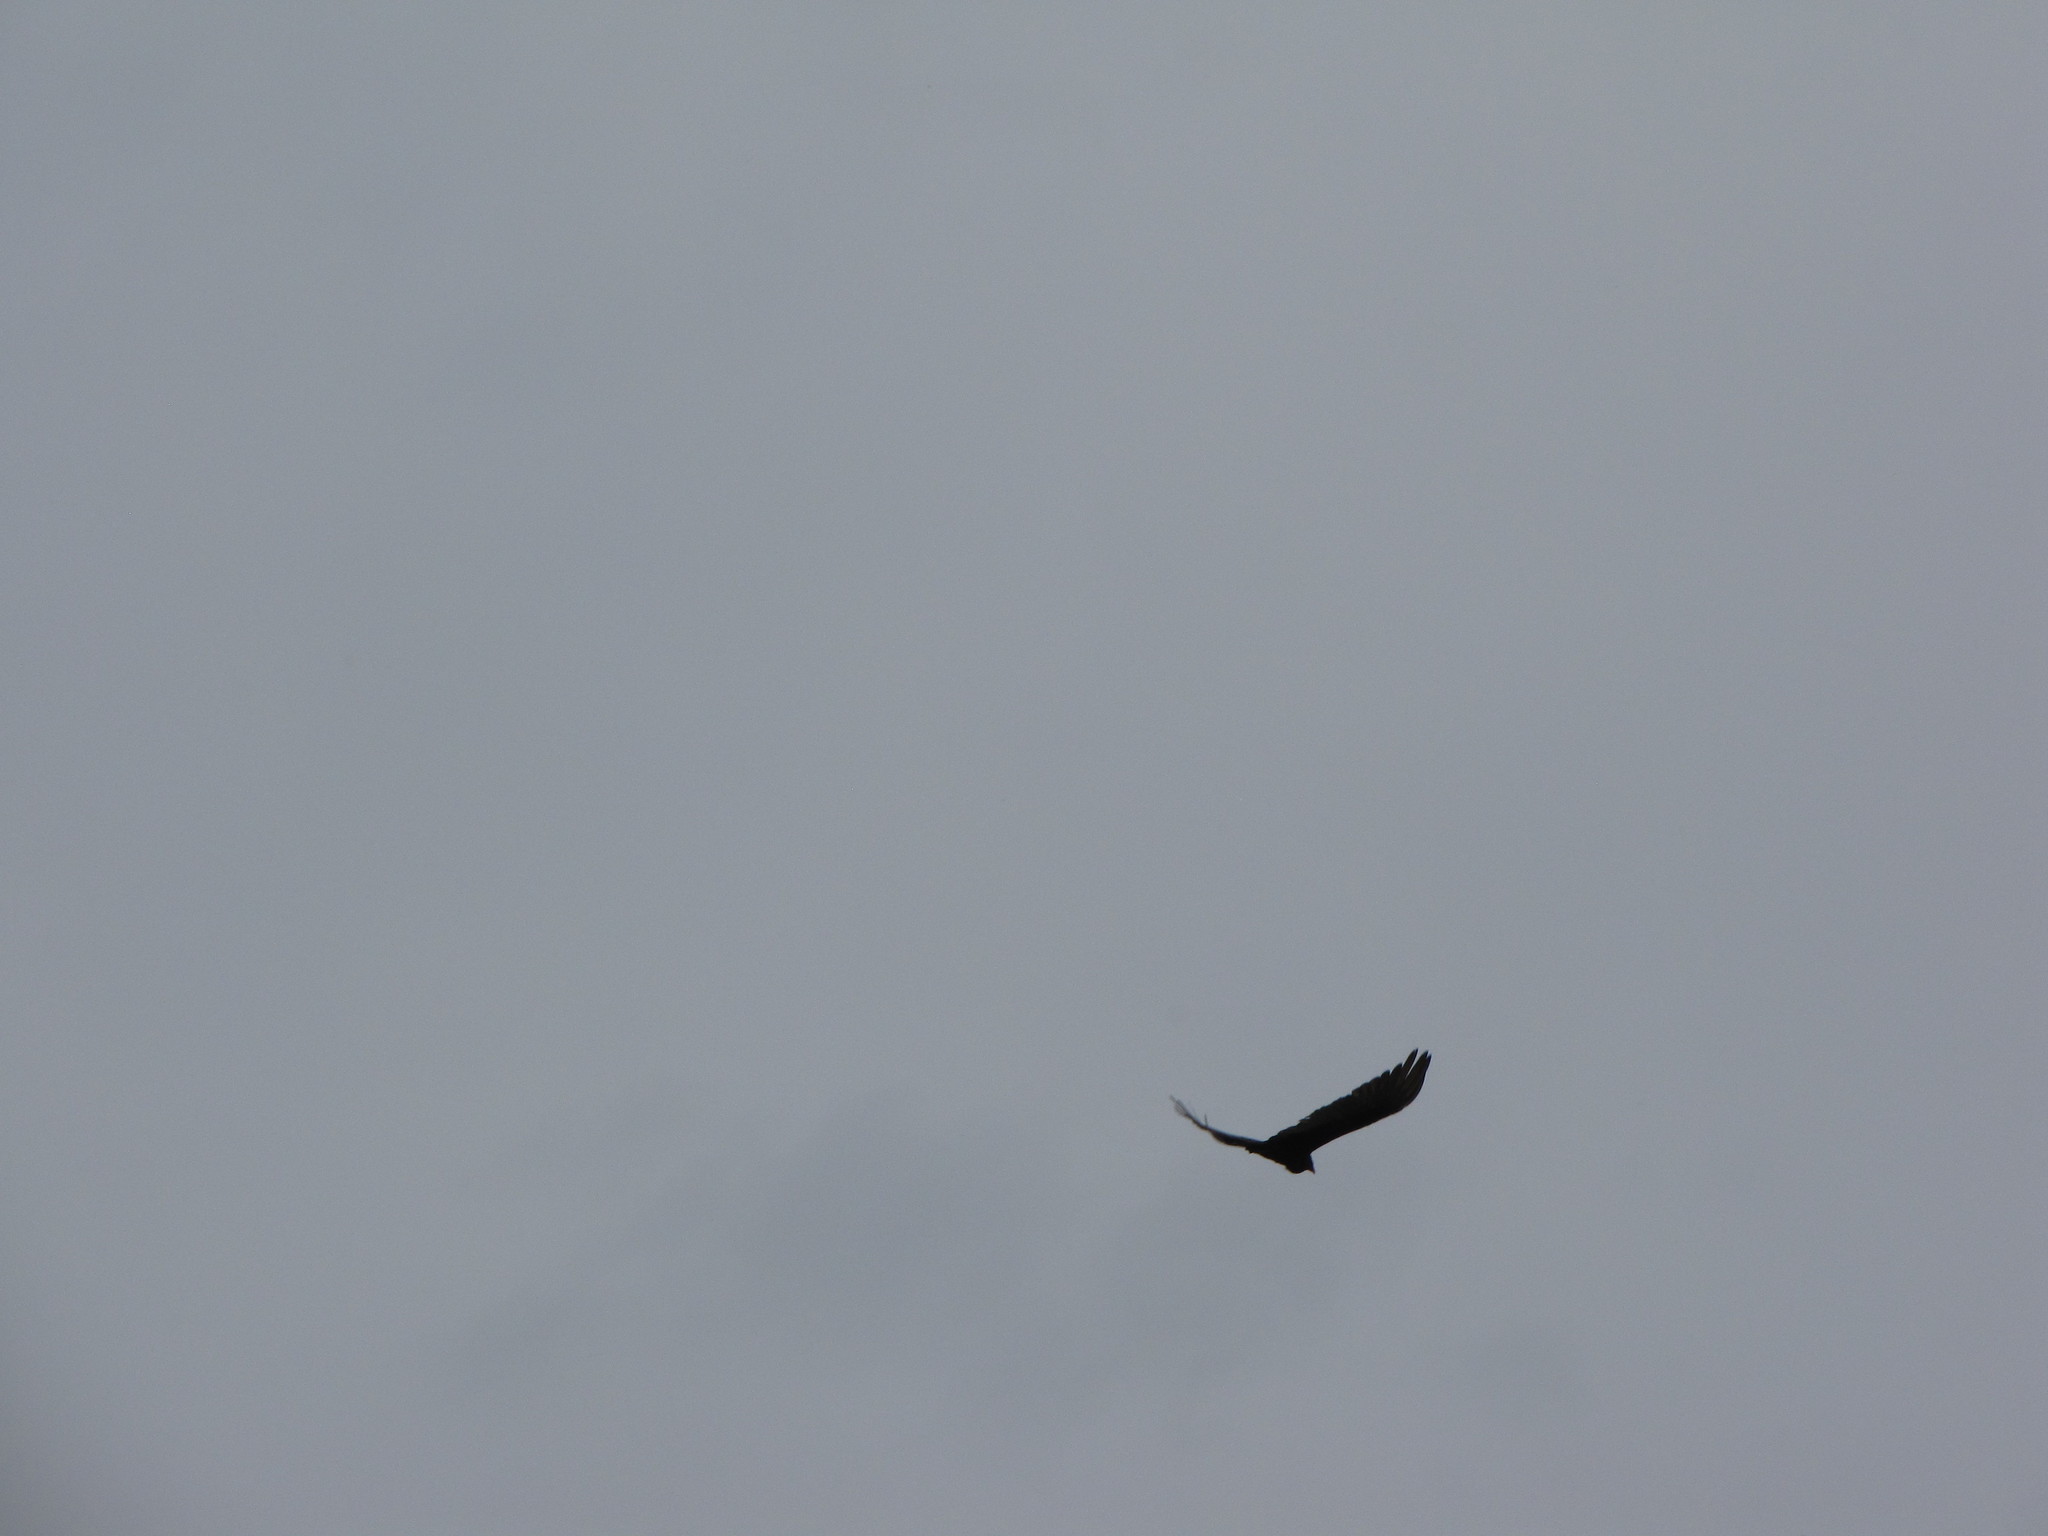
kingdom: Animalia
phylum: Chordata
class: Aves
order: Accipitriformes
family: Cathartidae
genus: Cathartes
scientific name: Cathartes aura
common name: Turkey vulture
